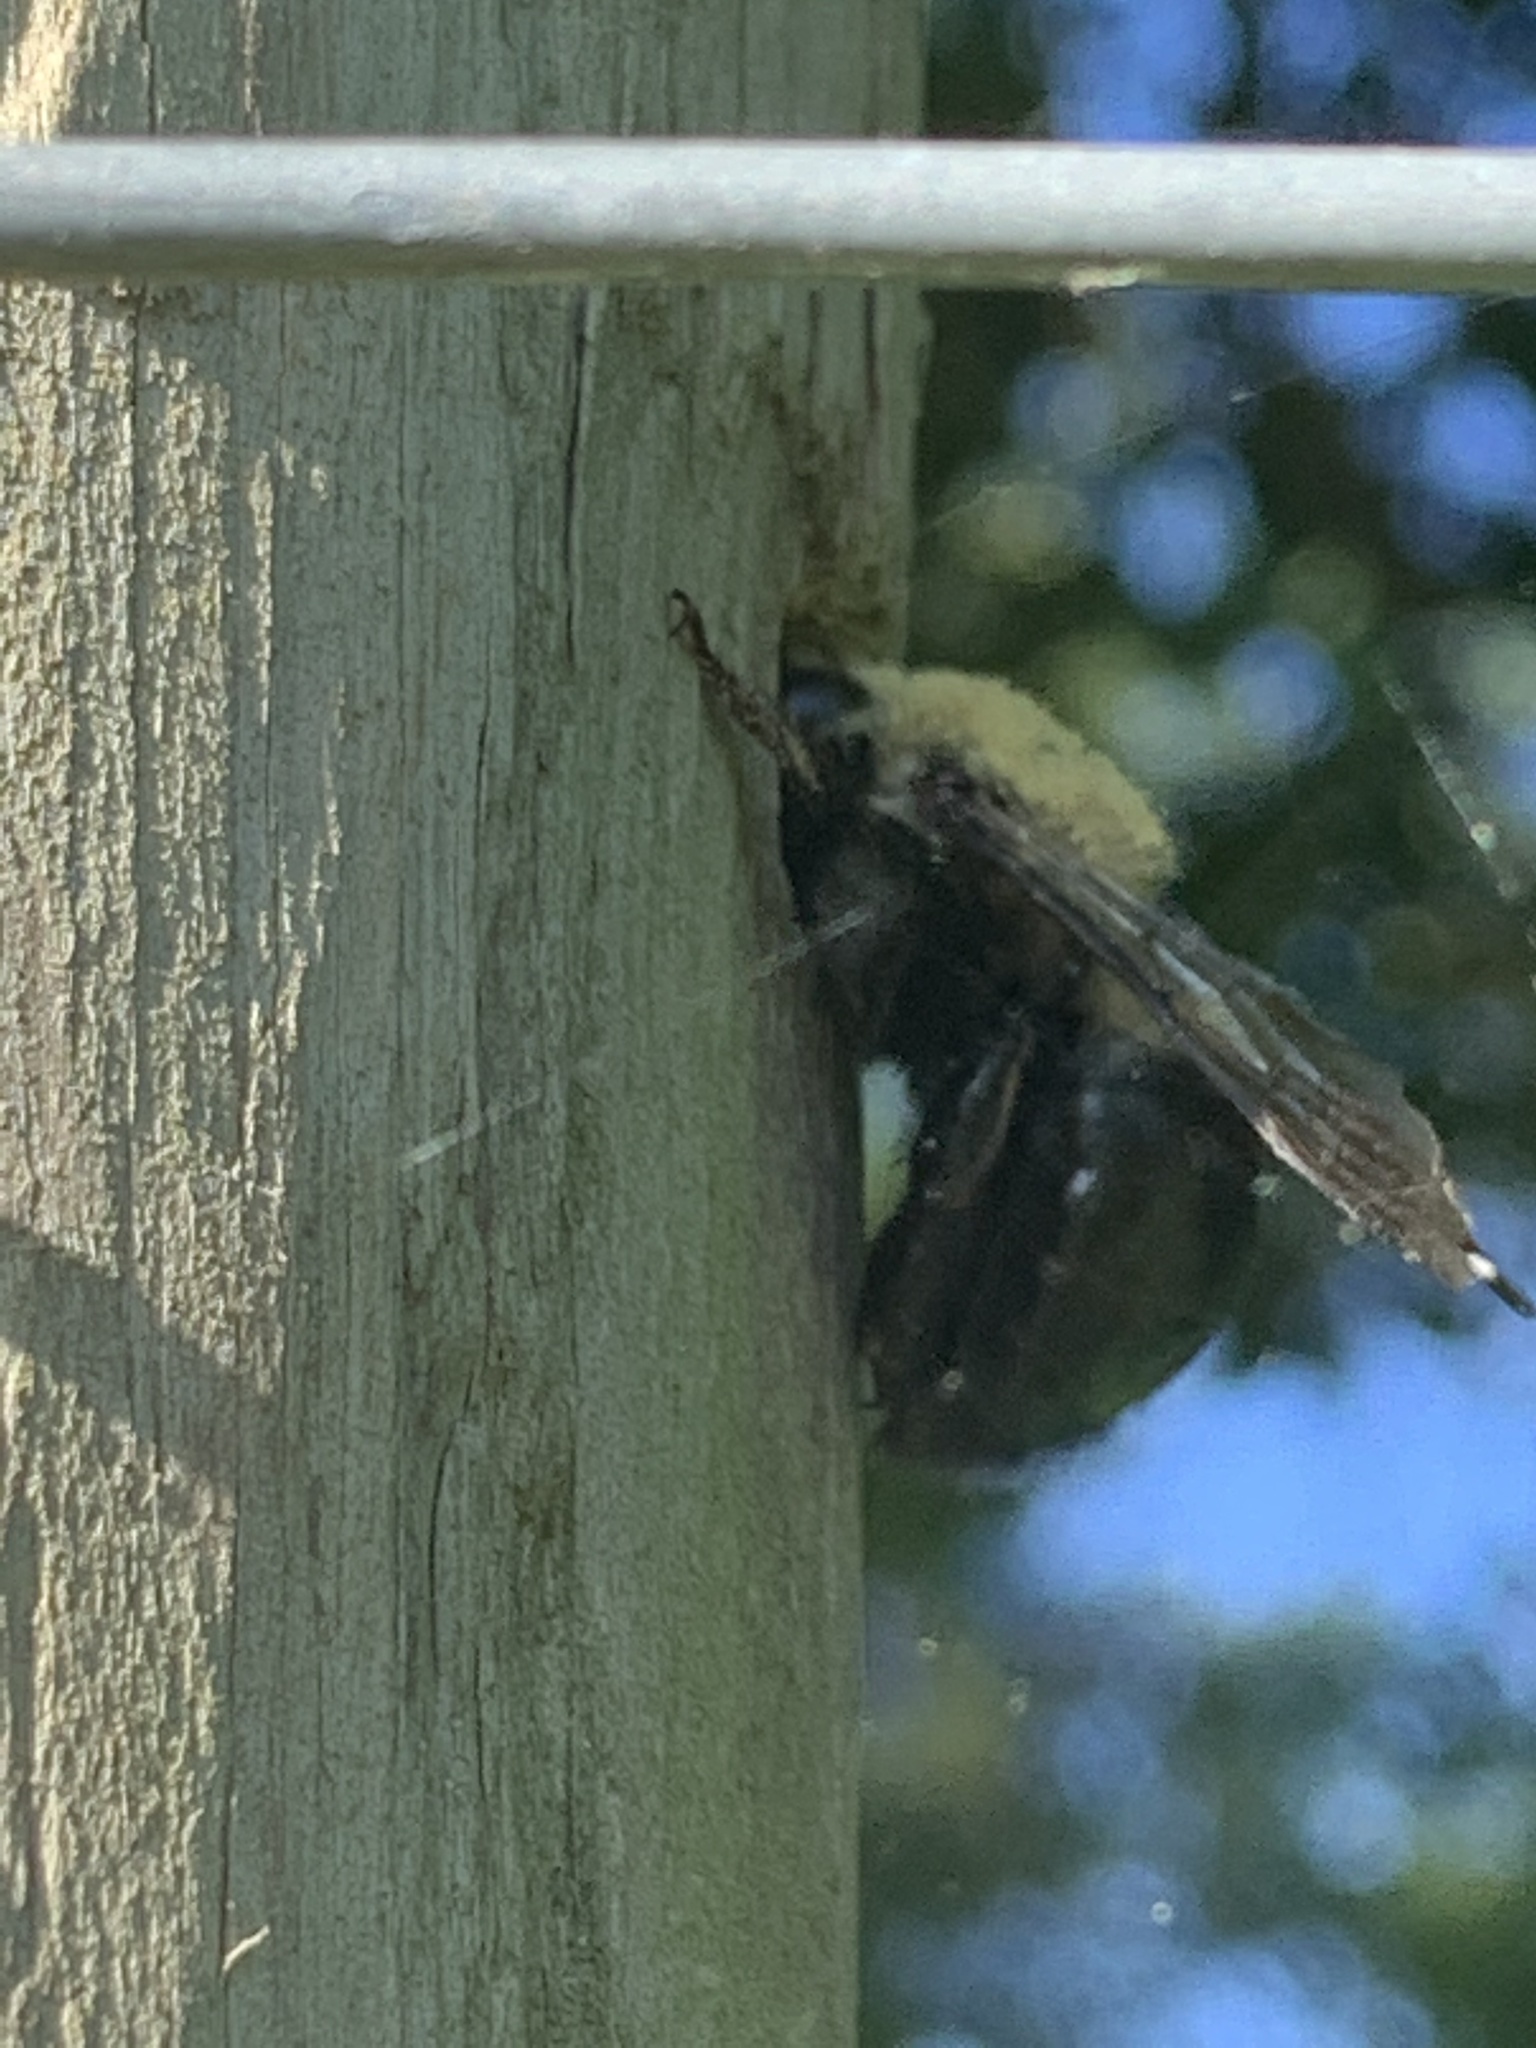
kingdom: Animalia
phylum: Arthropoda
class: Insecta
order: Hymenoptera
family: Apidae
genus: Xylocopa
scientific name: Xylocopa virginica
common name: Carpenter bee
